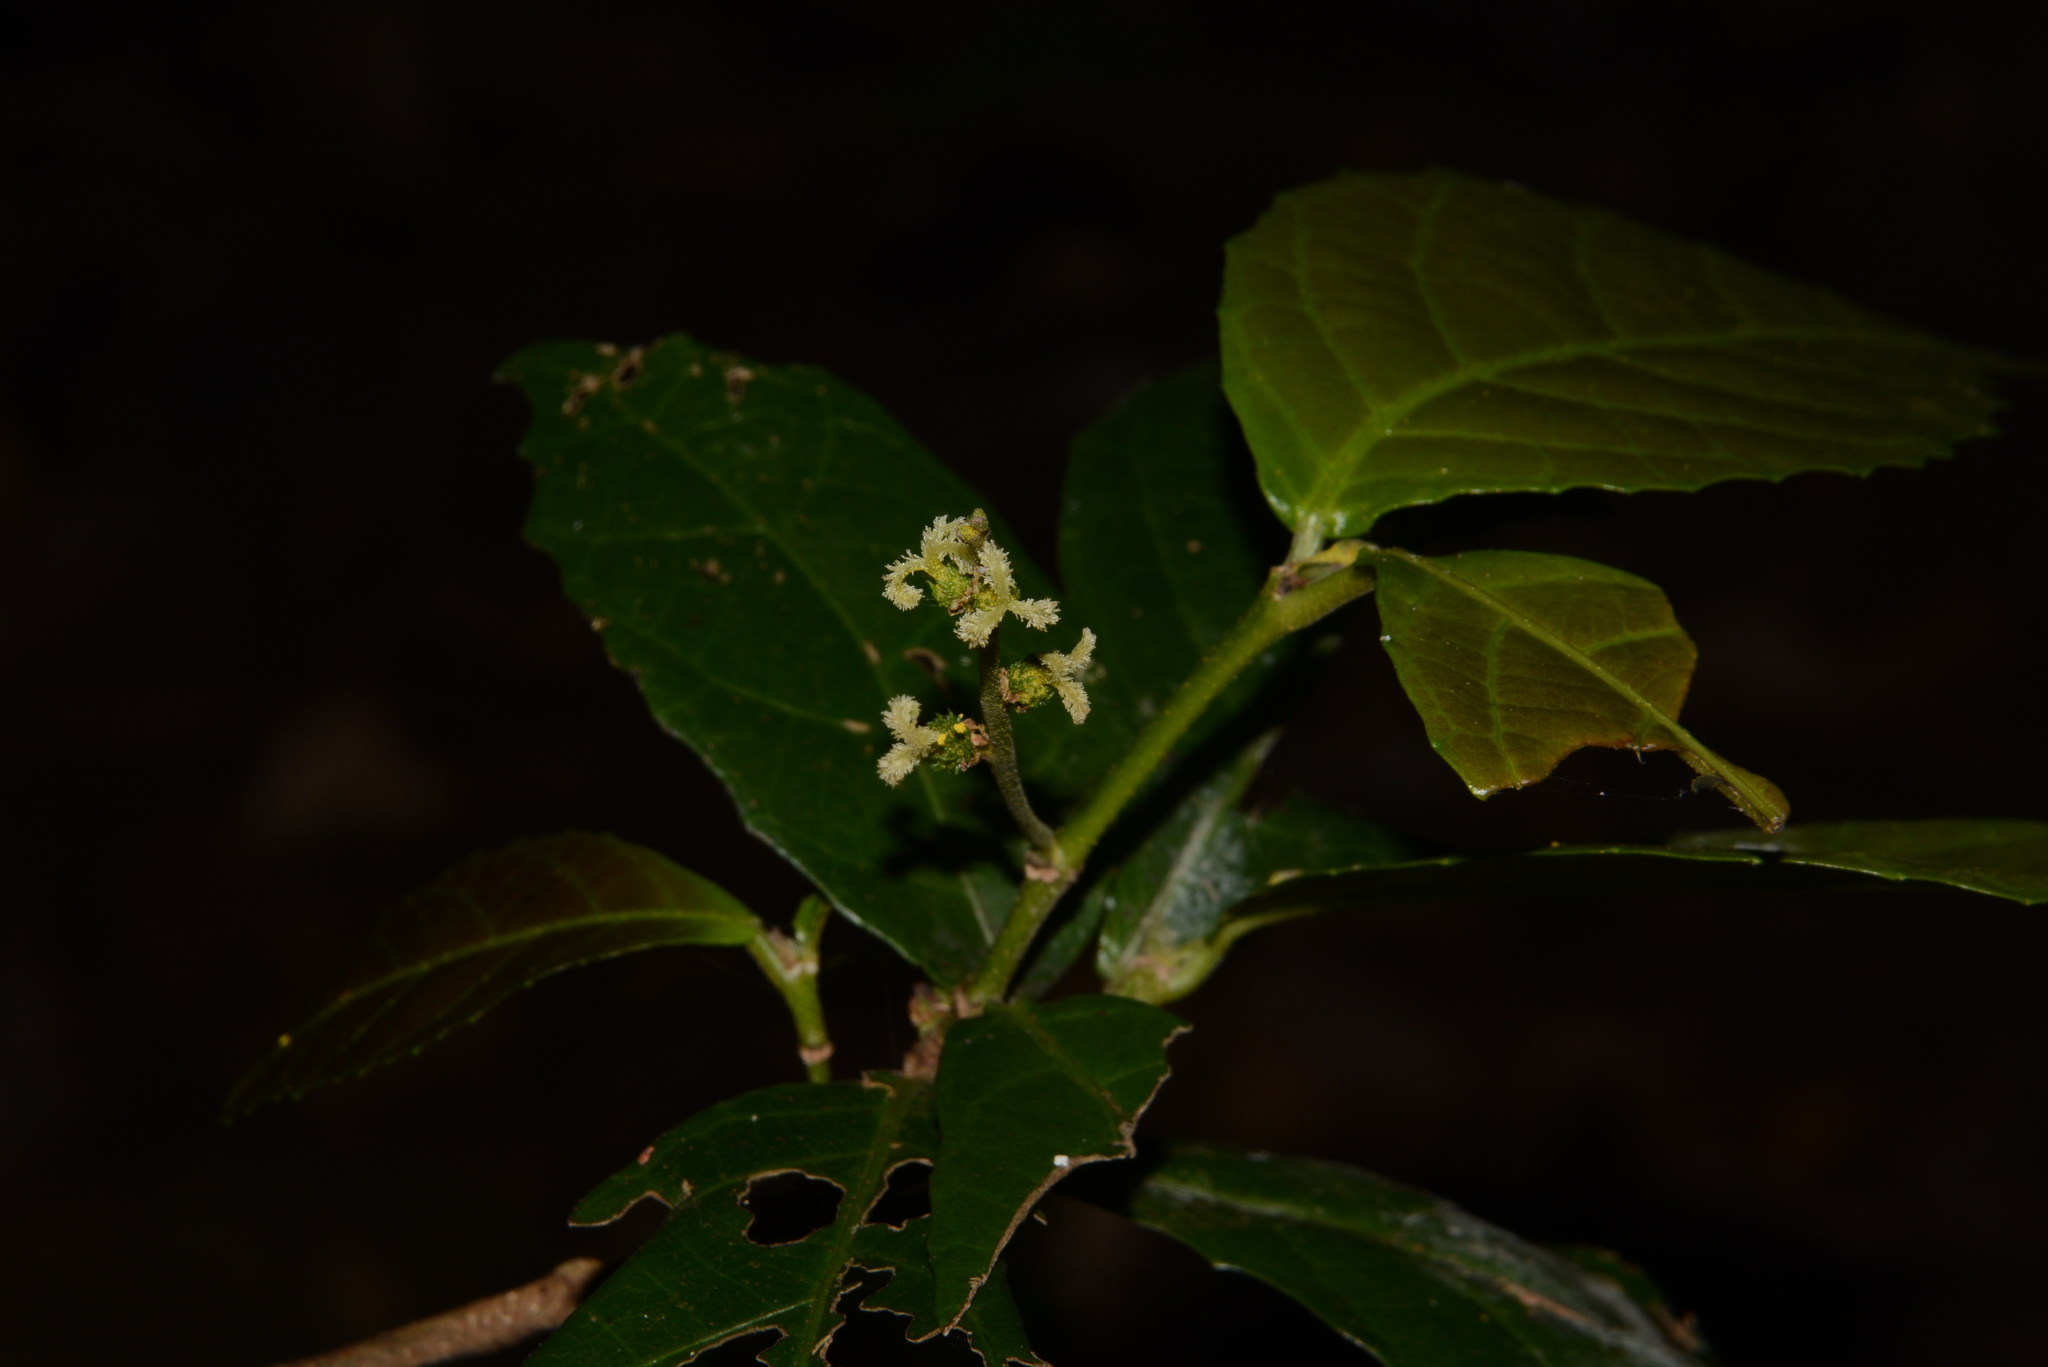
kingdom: Plantae
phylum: Tracheophyta
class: Magnoliopsida
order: Malpighiales
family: Euphorbiaceae
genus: Mallotus
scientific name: Mallotus resinosus
